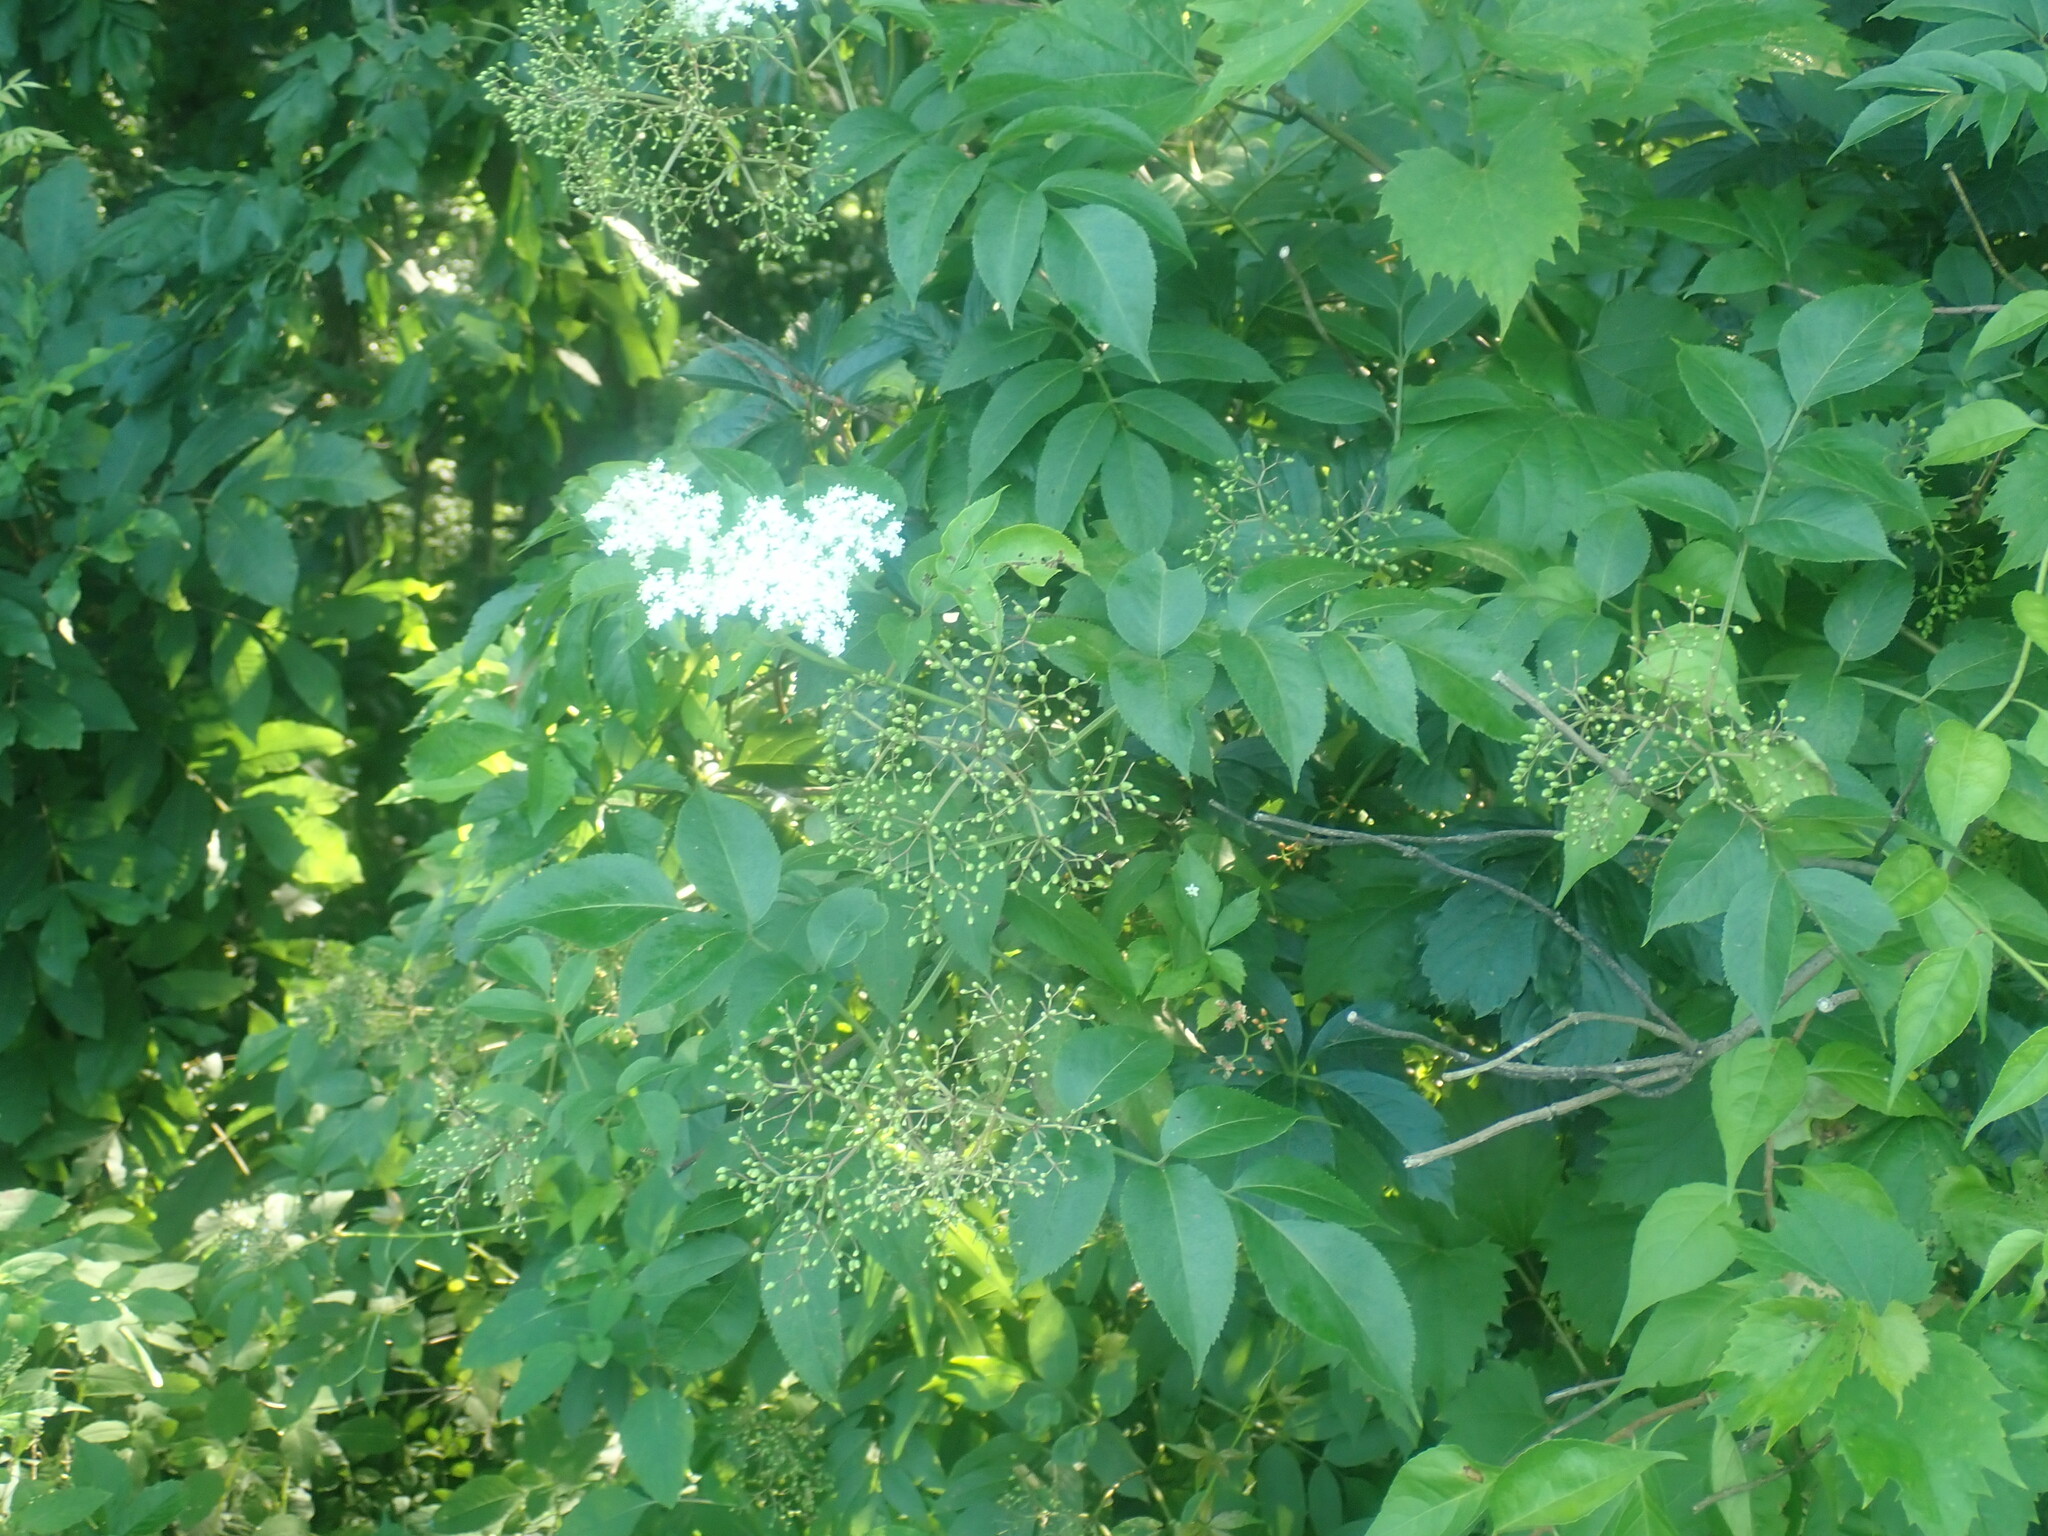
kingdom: Plantae
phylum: Tracheophyta
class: Magnoliopsida
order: Dipsacales
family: Viburnaceae
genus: Sambucus
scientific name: Sambucus canadensis
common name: American elder
